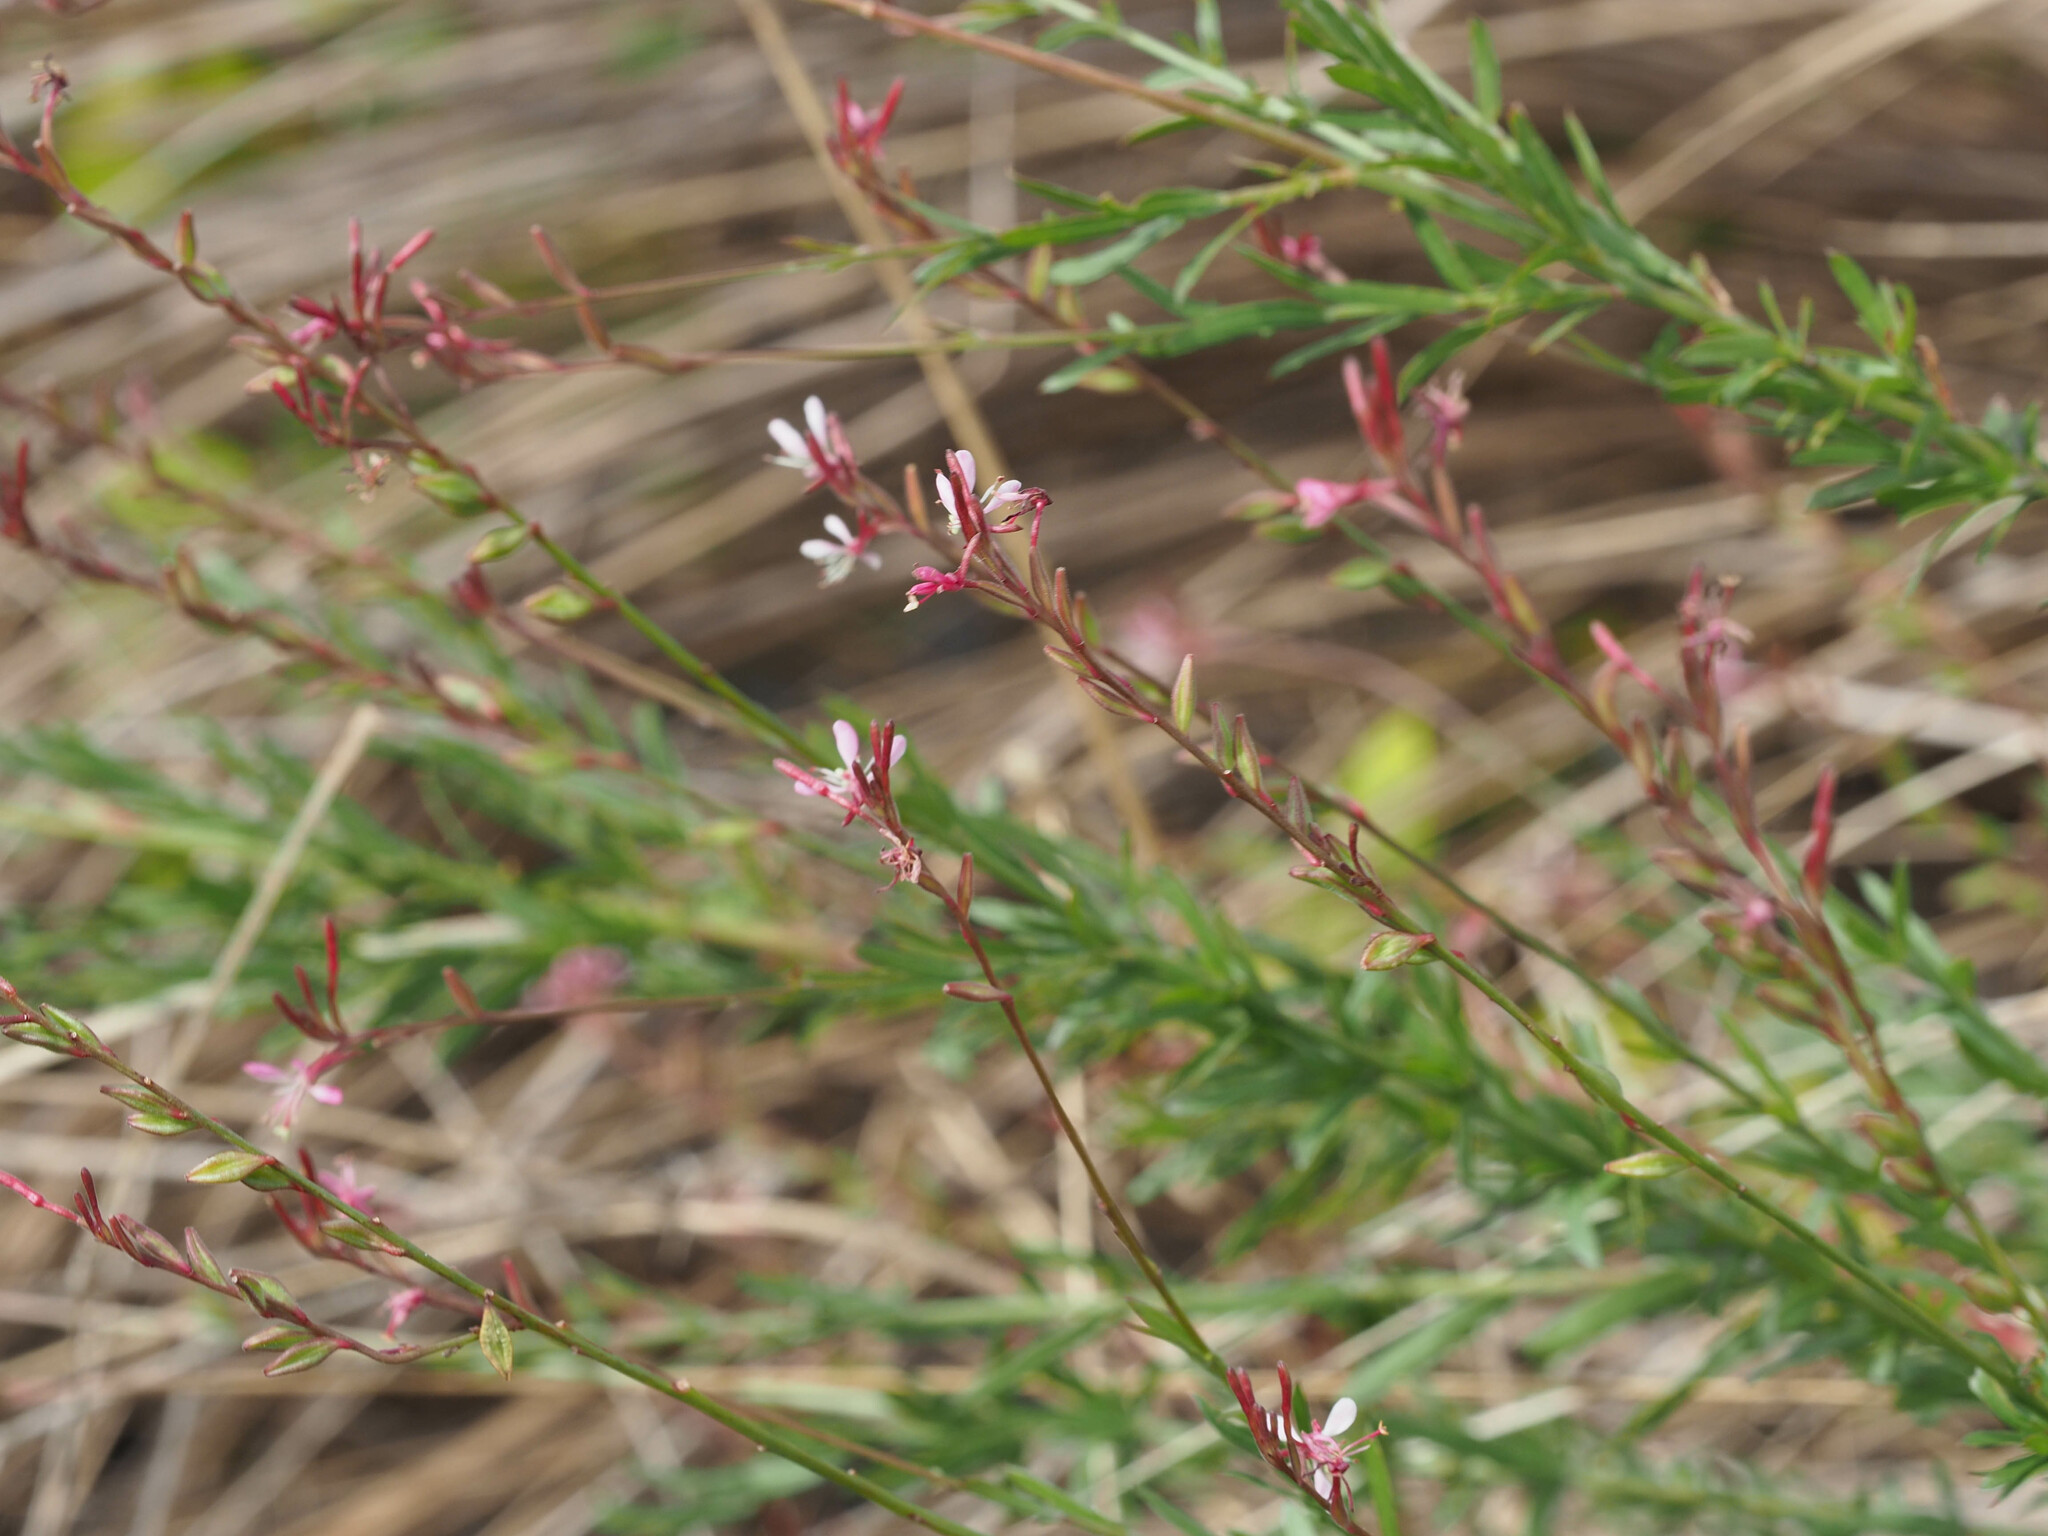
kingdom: Plantae
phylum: Tracheophyta
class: Magnoliopsida
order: Myrtales
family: Onagraceae
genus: Oenothera
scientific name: Oenothera simulans
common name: Southern beeblossom
